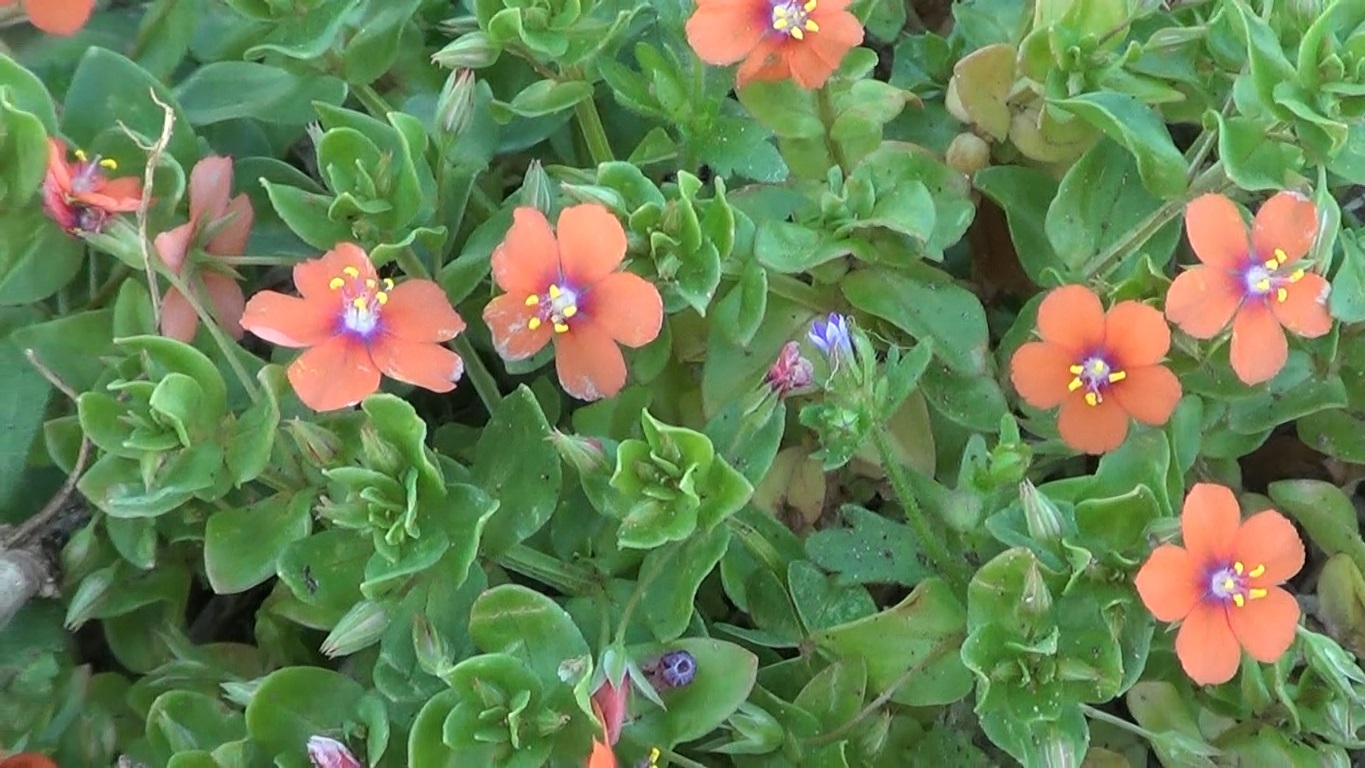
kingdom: Plantae
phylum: Tracheophyta
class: Magnoliopsida
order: Ericales
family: Primulaceae
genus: Lysimachia
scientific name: Lysimachia arvensis
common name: Scarlet pimpernel
